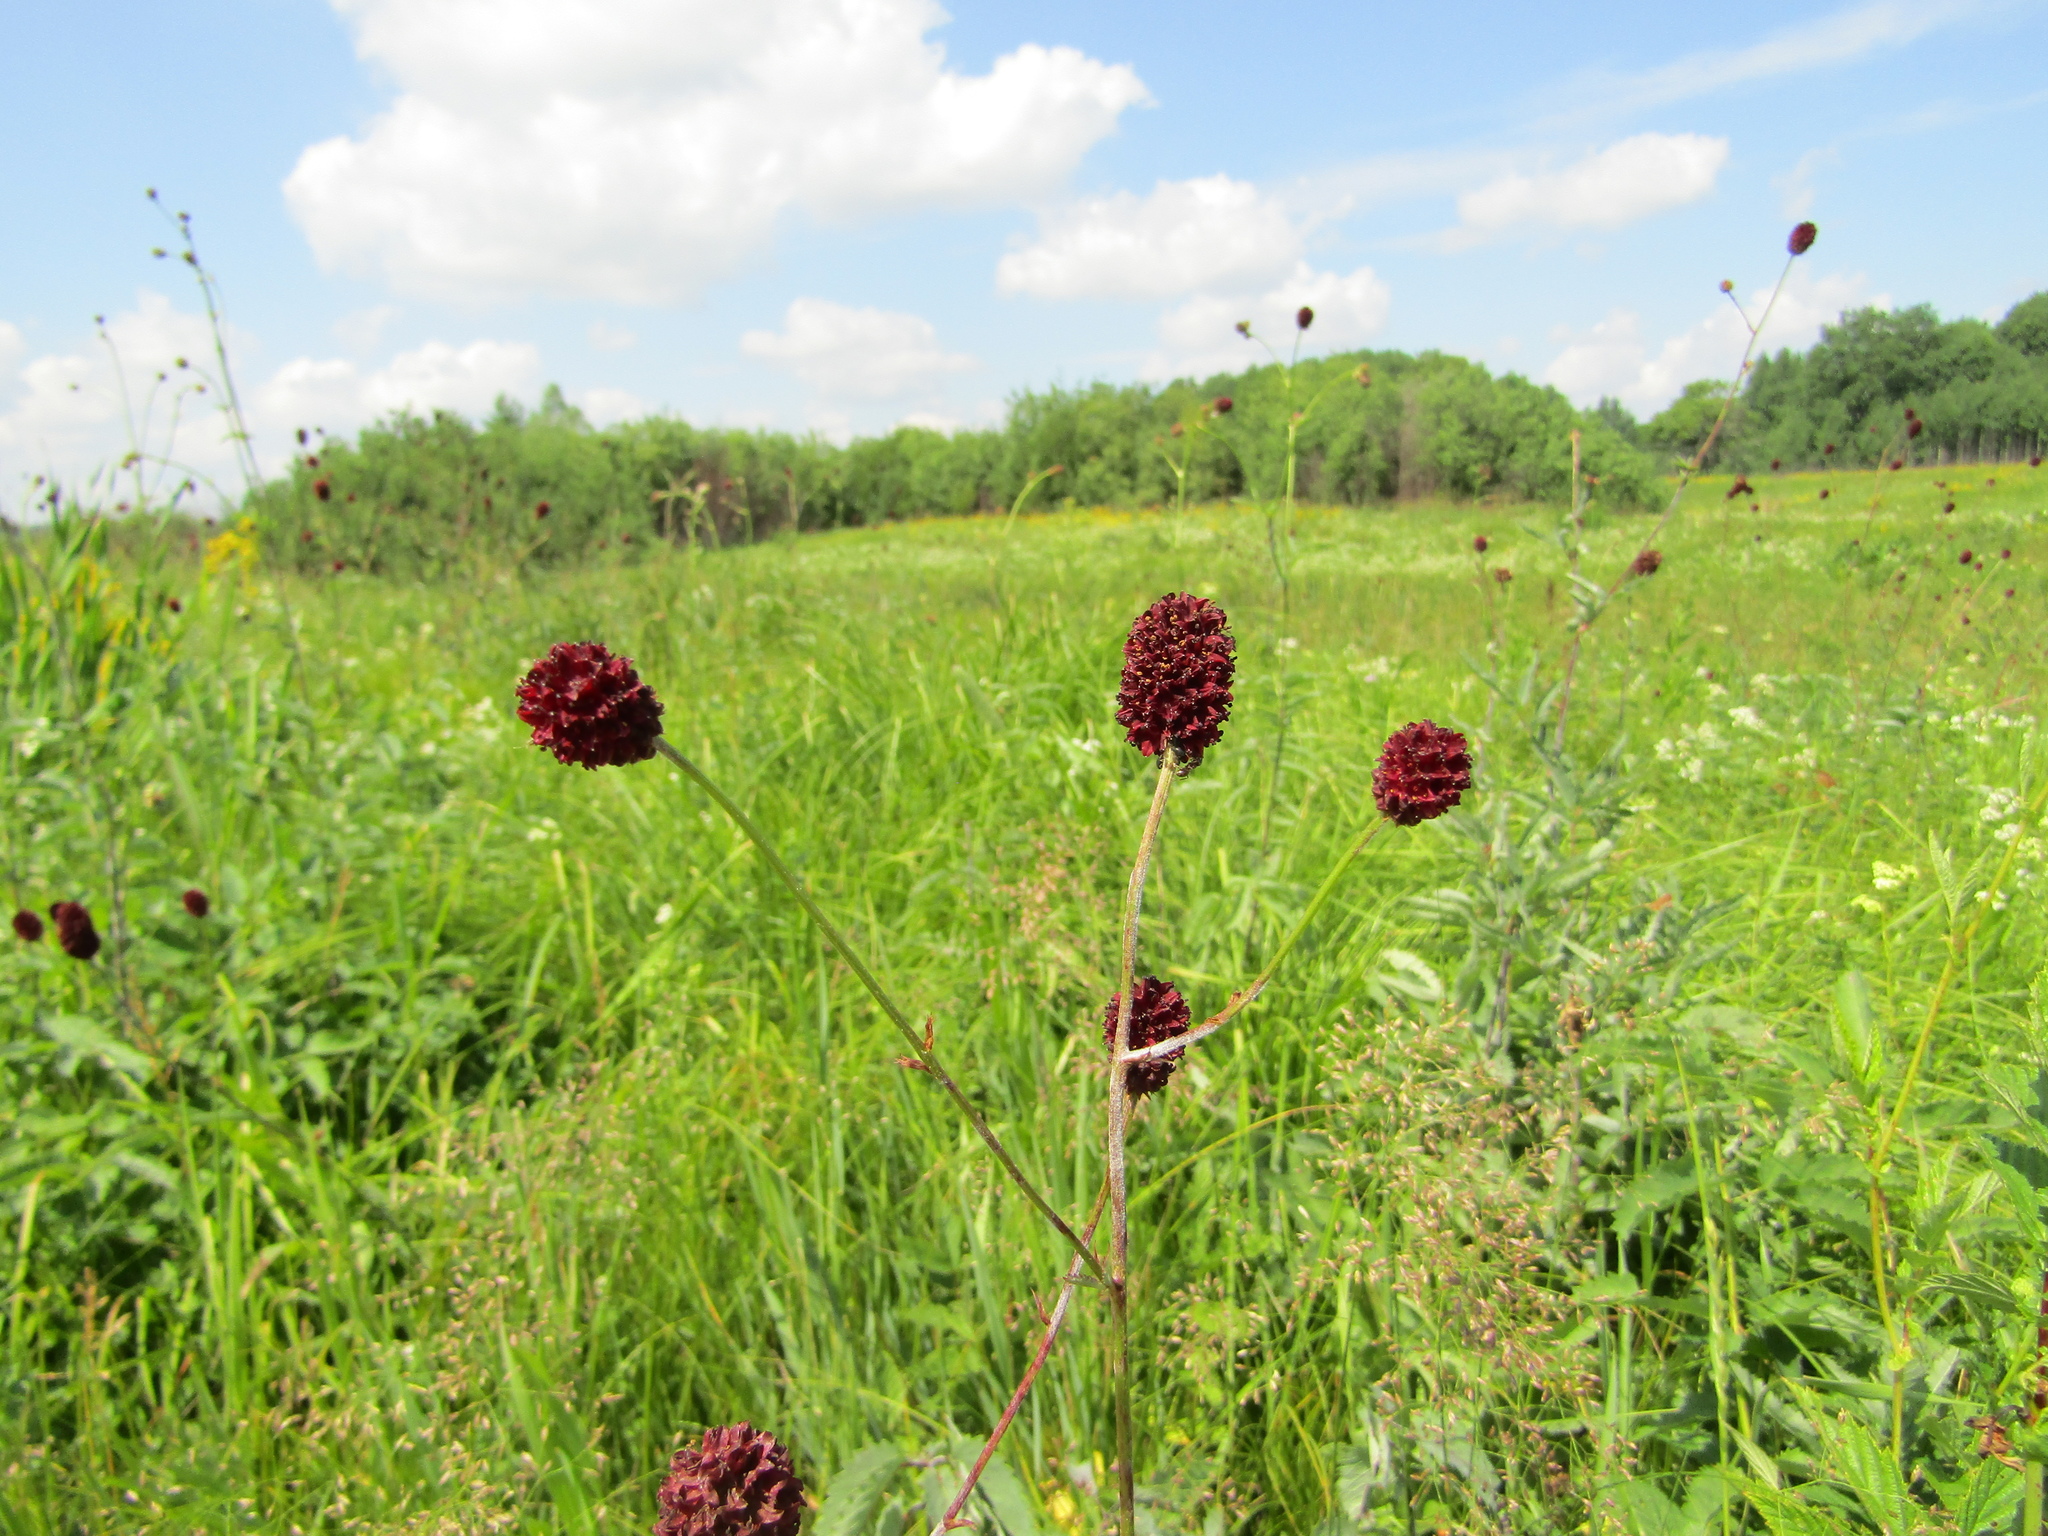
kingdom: Plantae
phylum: Tracheophyta
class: Magnoliopsida
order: Rosales
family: Rosaceae
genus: Sanguisorba
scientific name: Sanguisorba officinalis
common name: Great burnet
